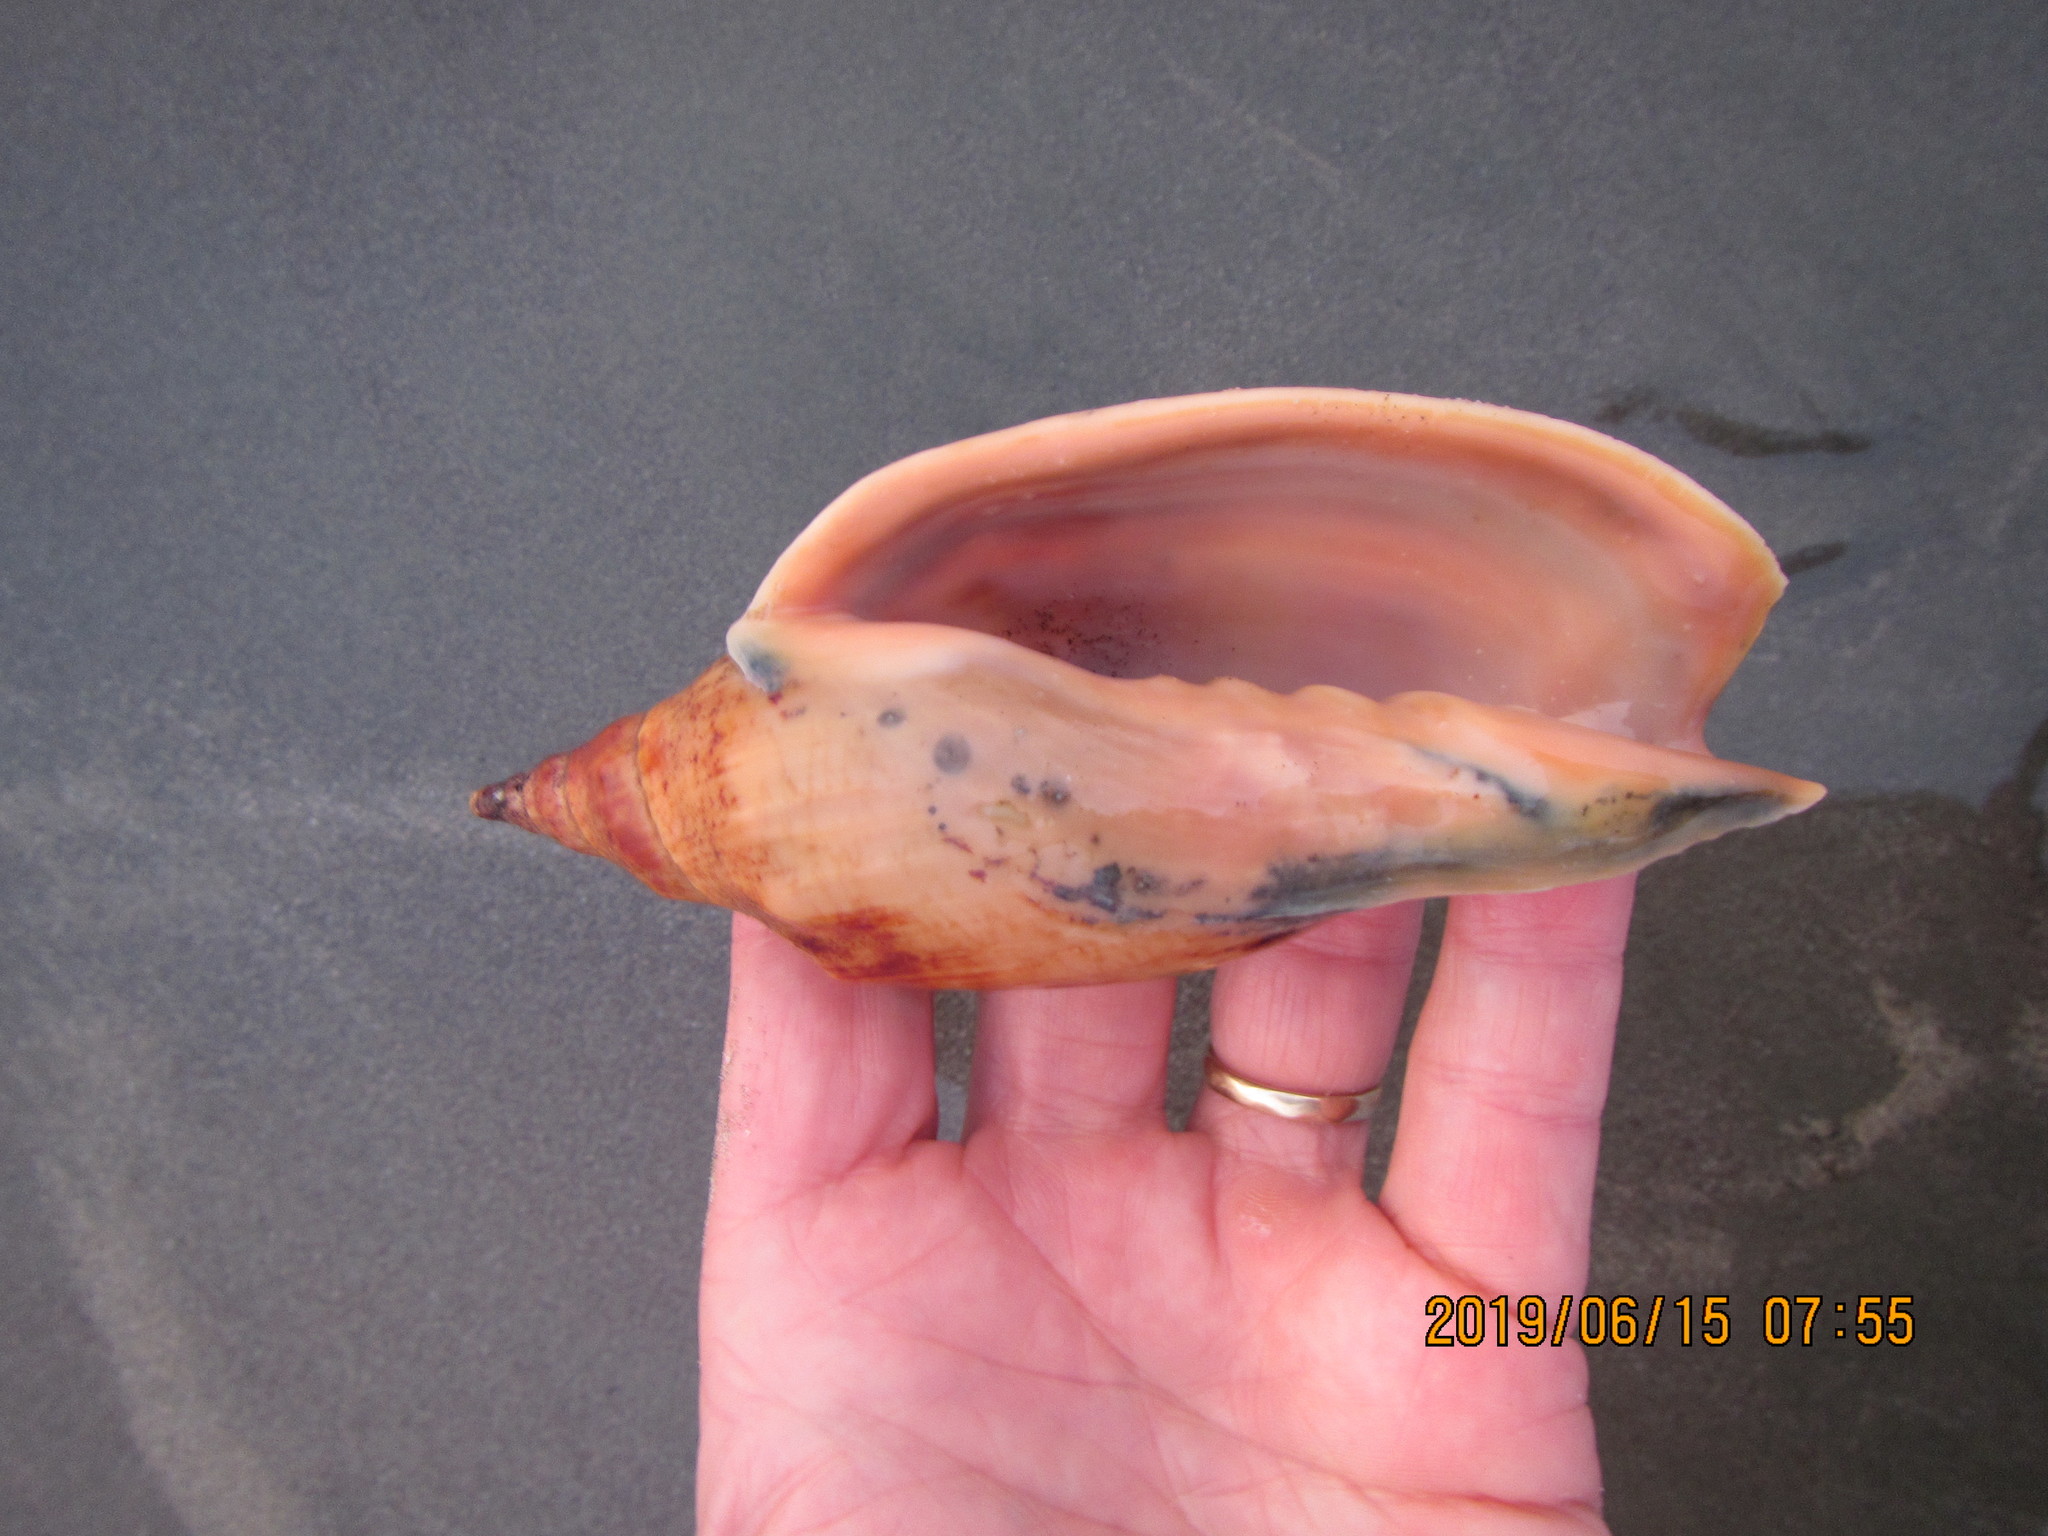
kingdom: Animalia
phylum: Mollusca
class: Gastropoda
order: Neogastropoda
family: Volutidae
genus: Alcithoe
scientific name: Alcithoe arabica
